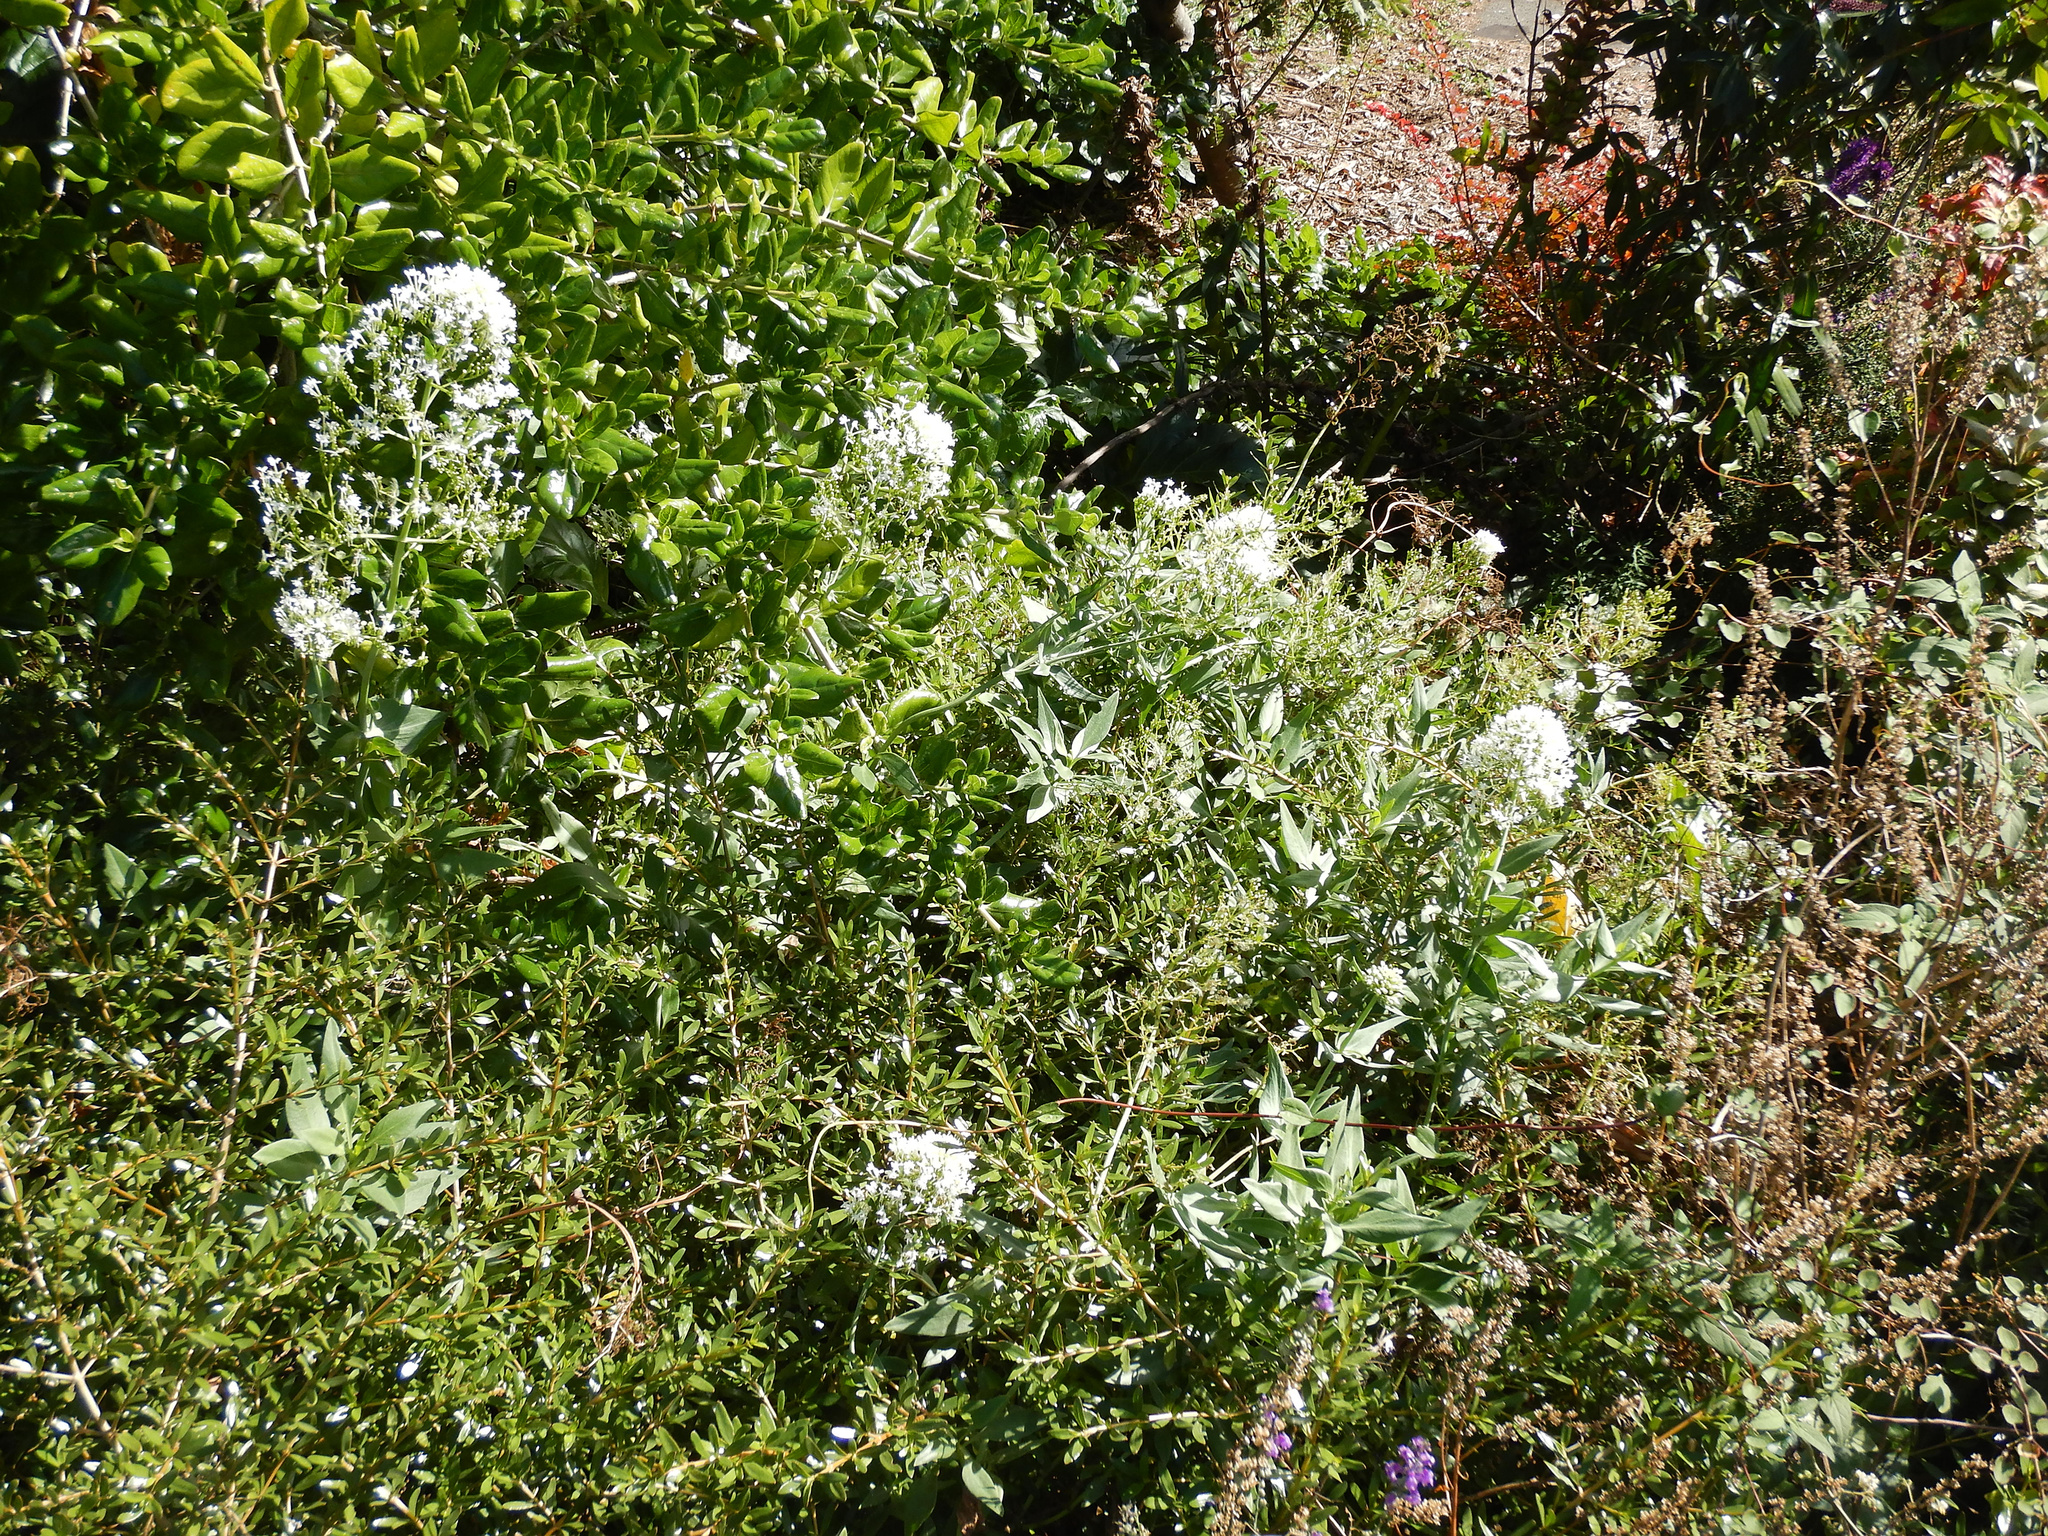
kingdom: Plantae
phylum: Tracheophyta
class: Magnoliopsida
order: Dipsacales
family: Caprifoliaceae
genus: Centranthus
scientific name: Centranthus ruber
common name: Red valerian
